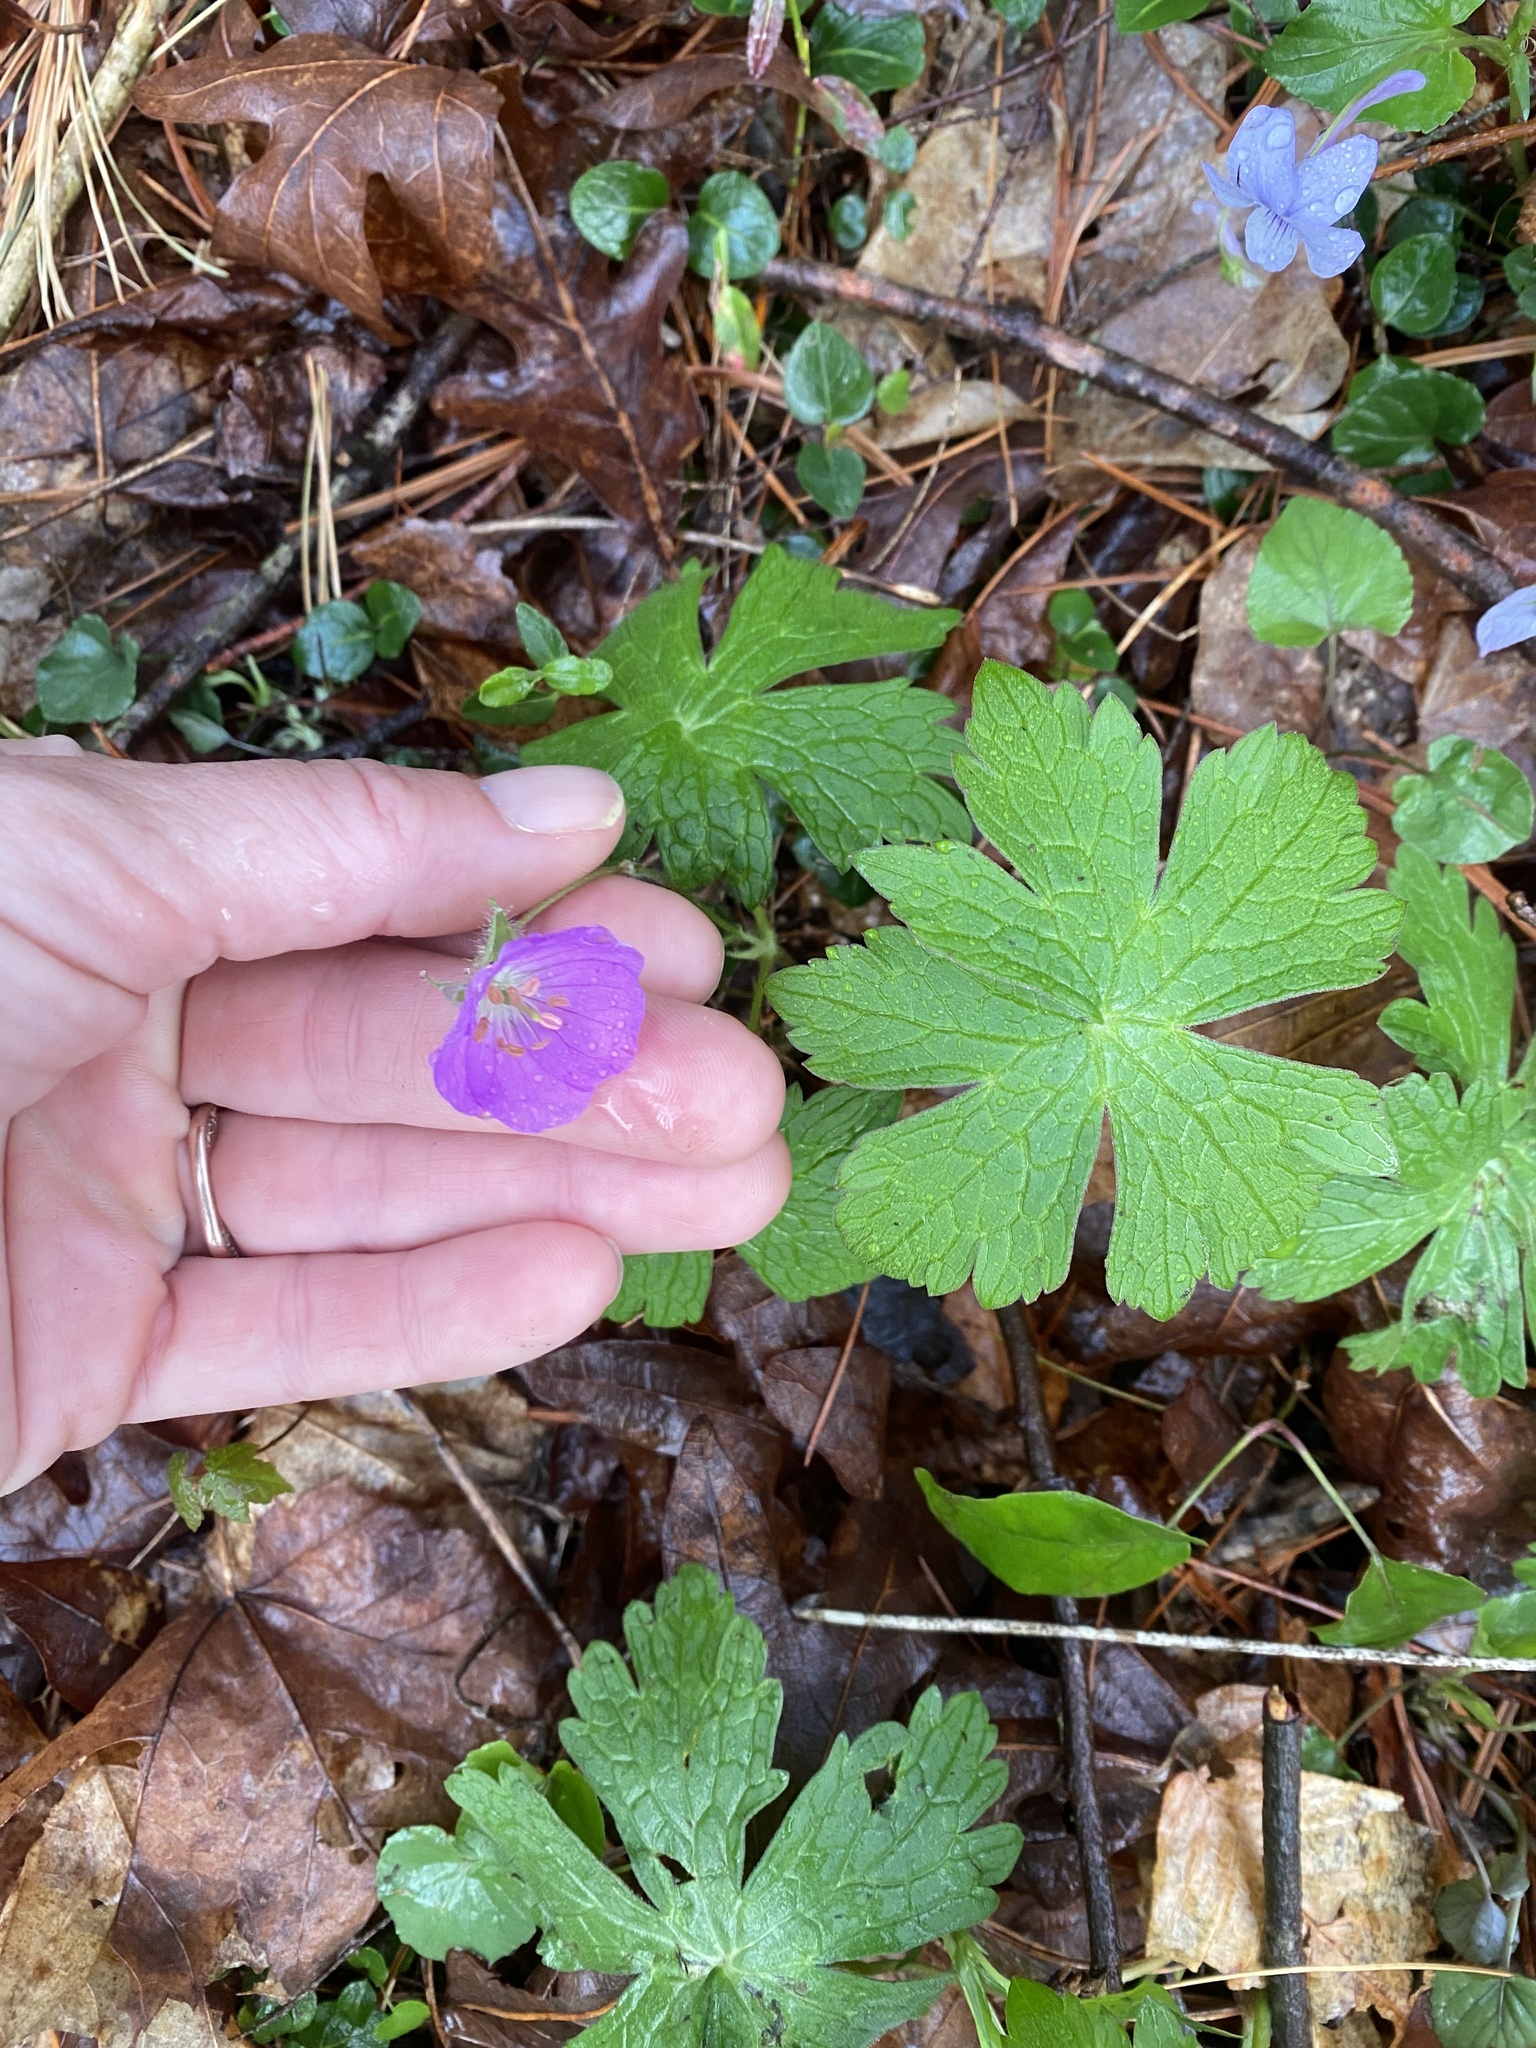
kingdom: Plantae
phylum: Tracheophyta
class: Magnoliopsida
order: Geraniales
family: Geraniaceae
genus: Geranium
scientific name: Geranium maculatum
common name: Spotted geranium
